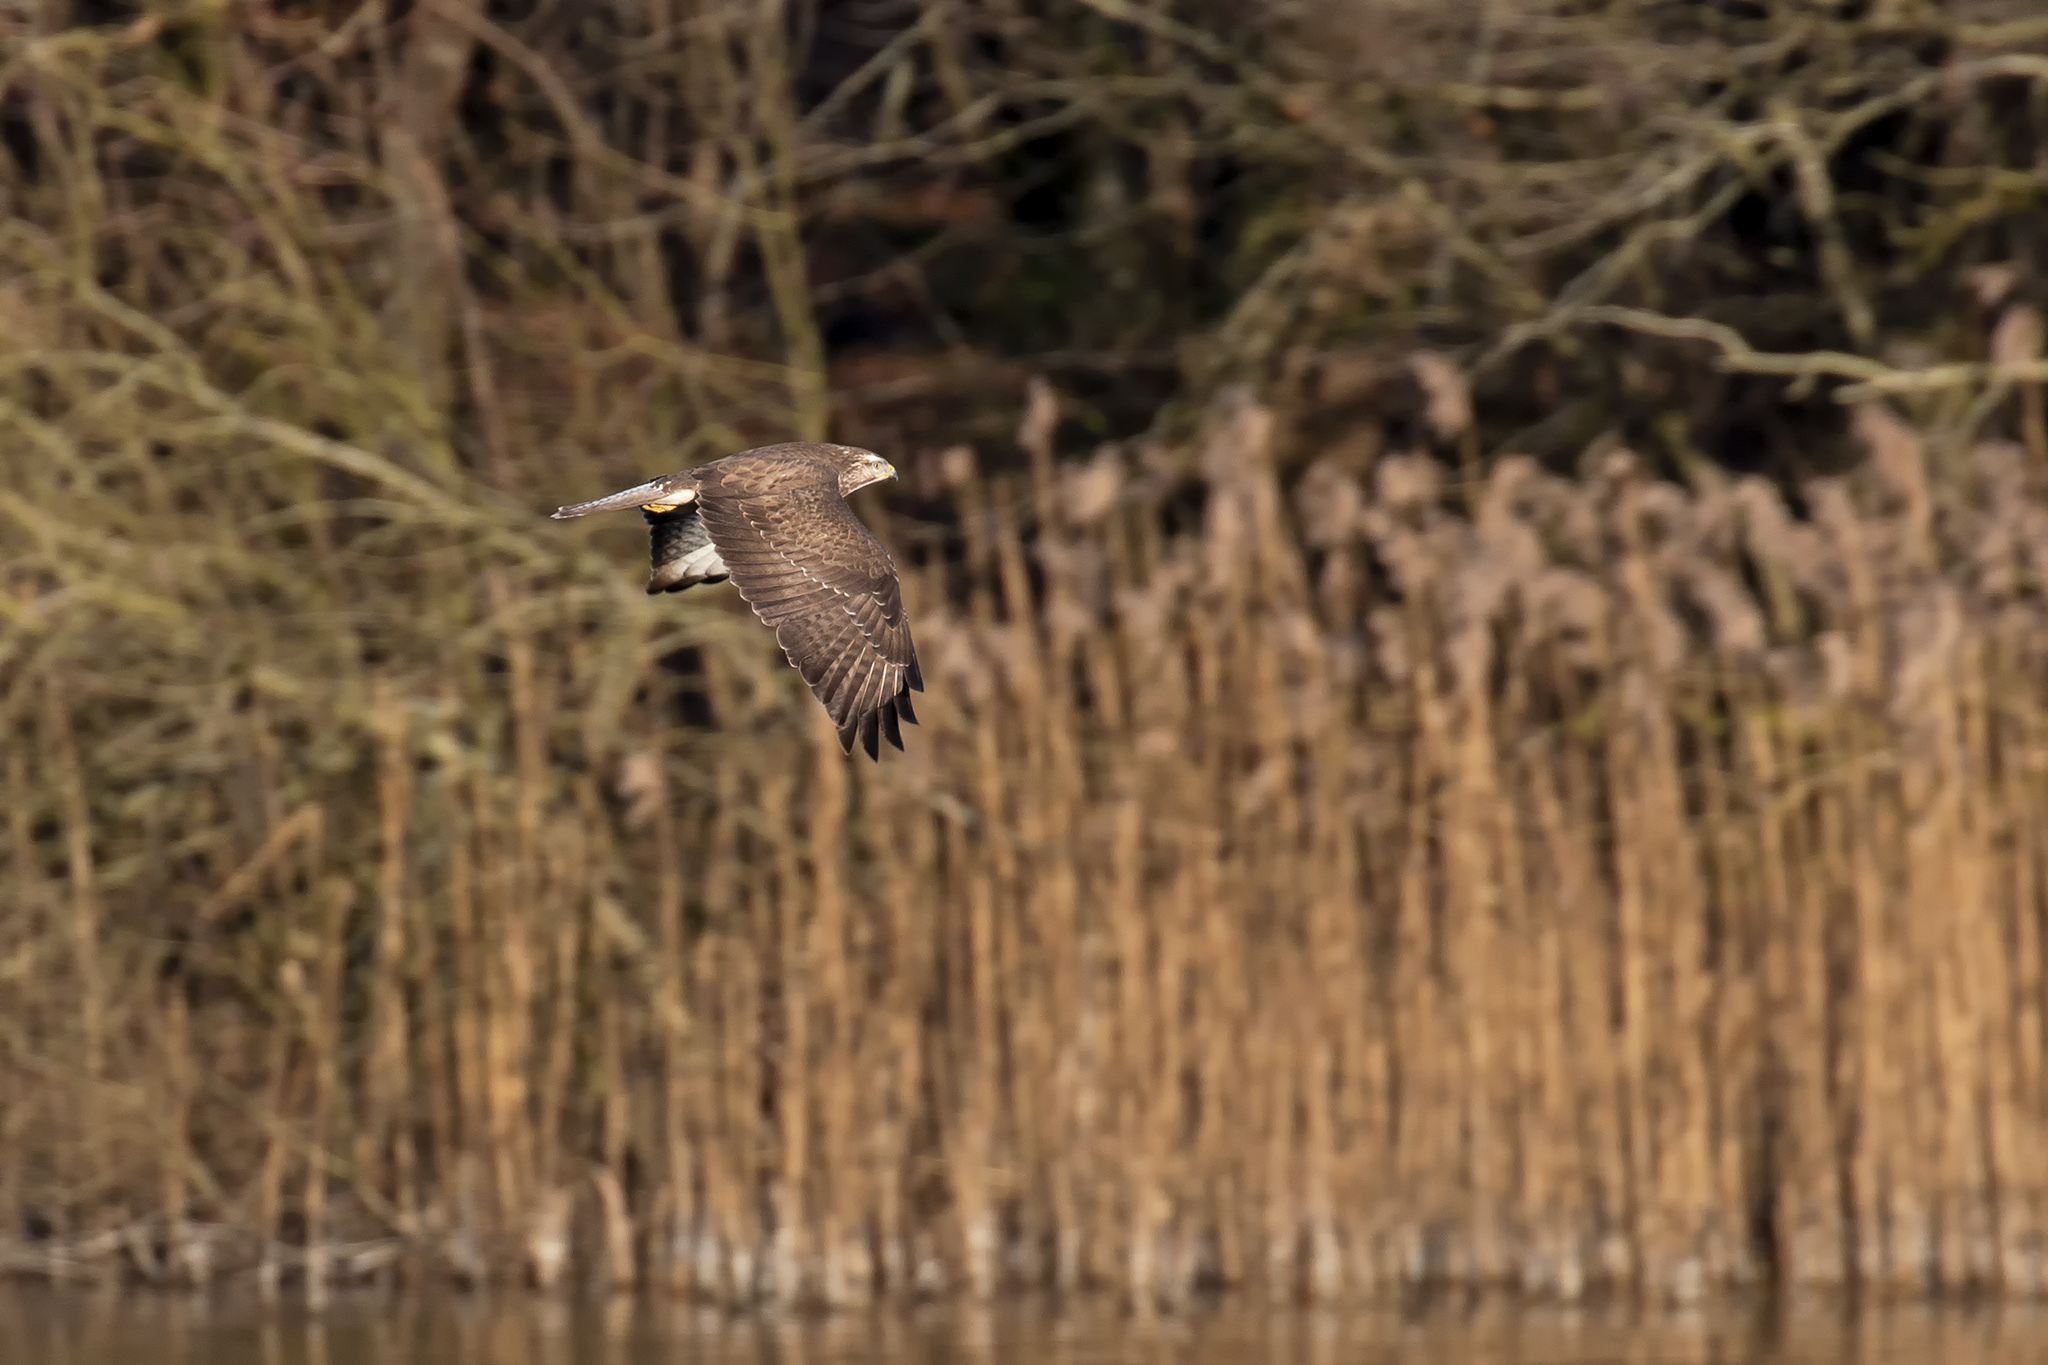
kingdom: Animalia
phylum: Chordata
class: Aves
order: Accipitriformes
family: Accipitridae
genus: Buteo
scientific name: Buteo buteo
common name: Common buzzard
